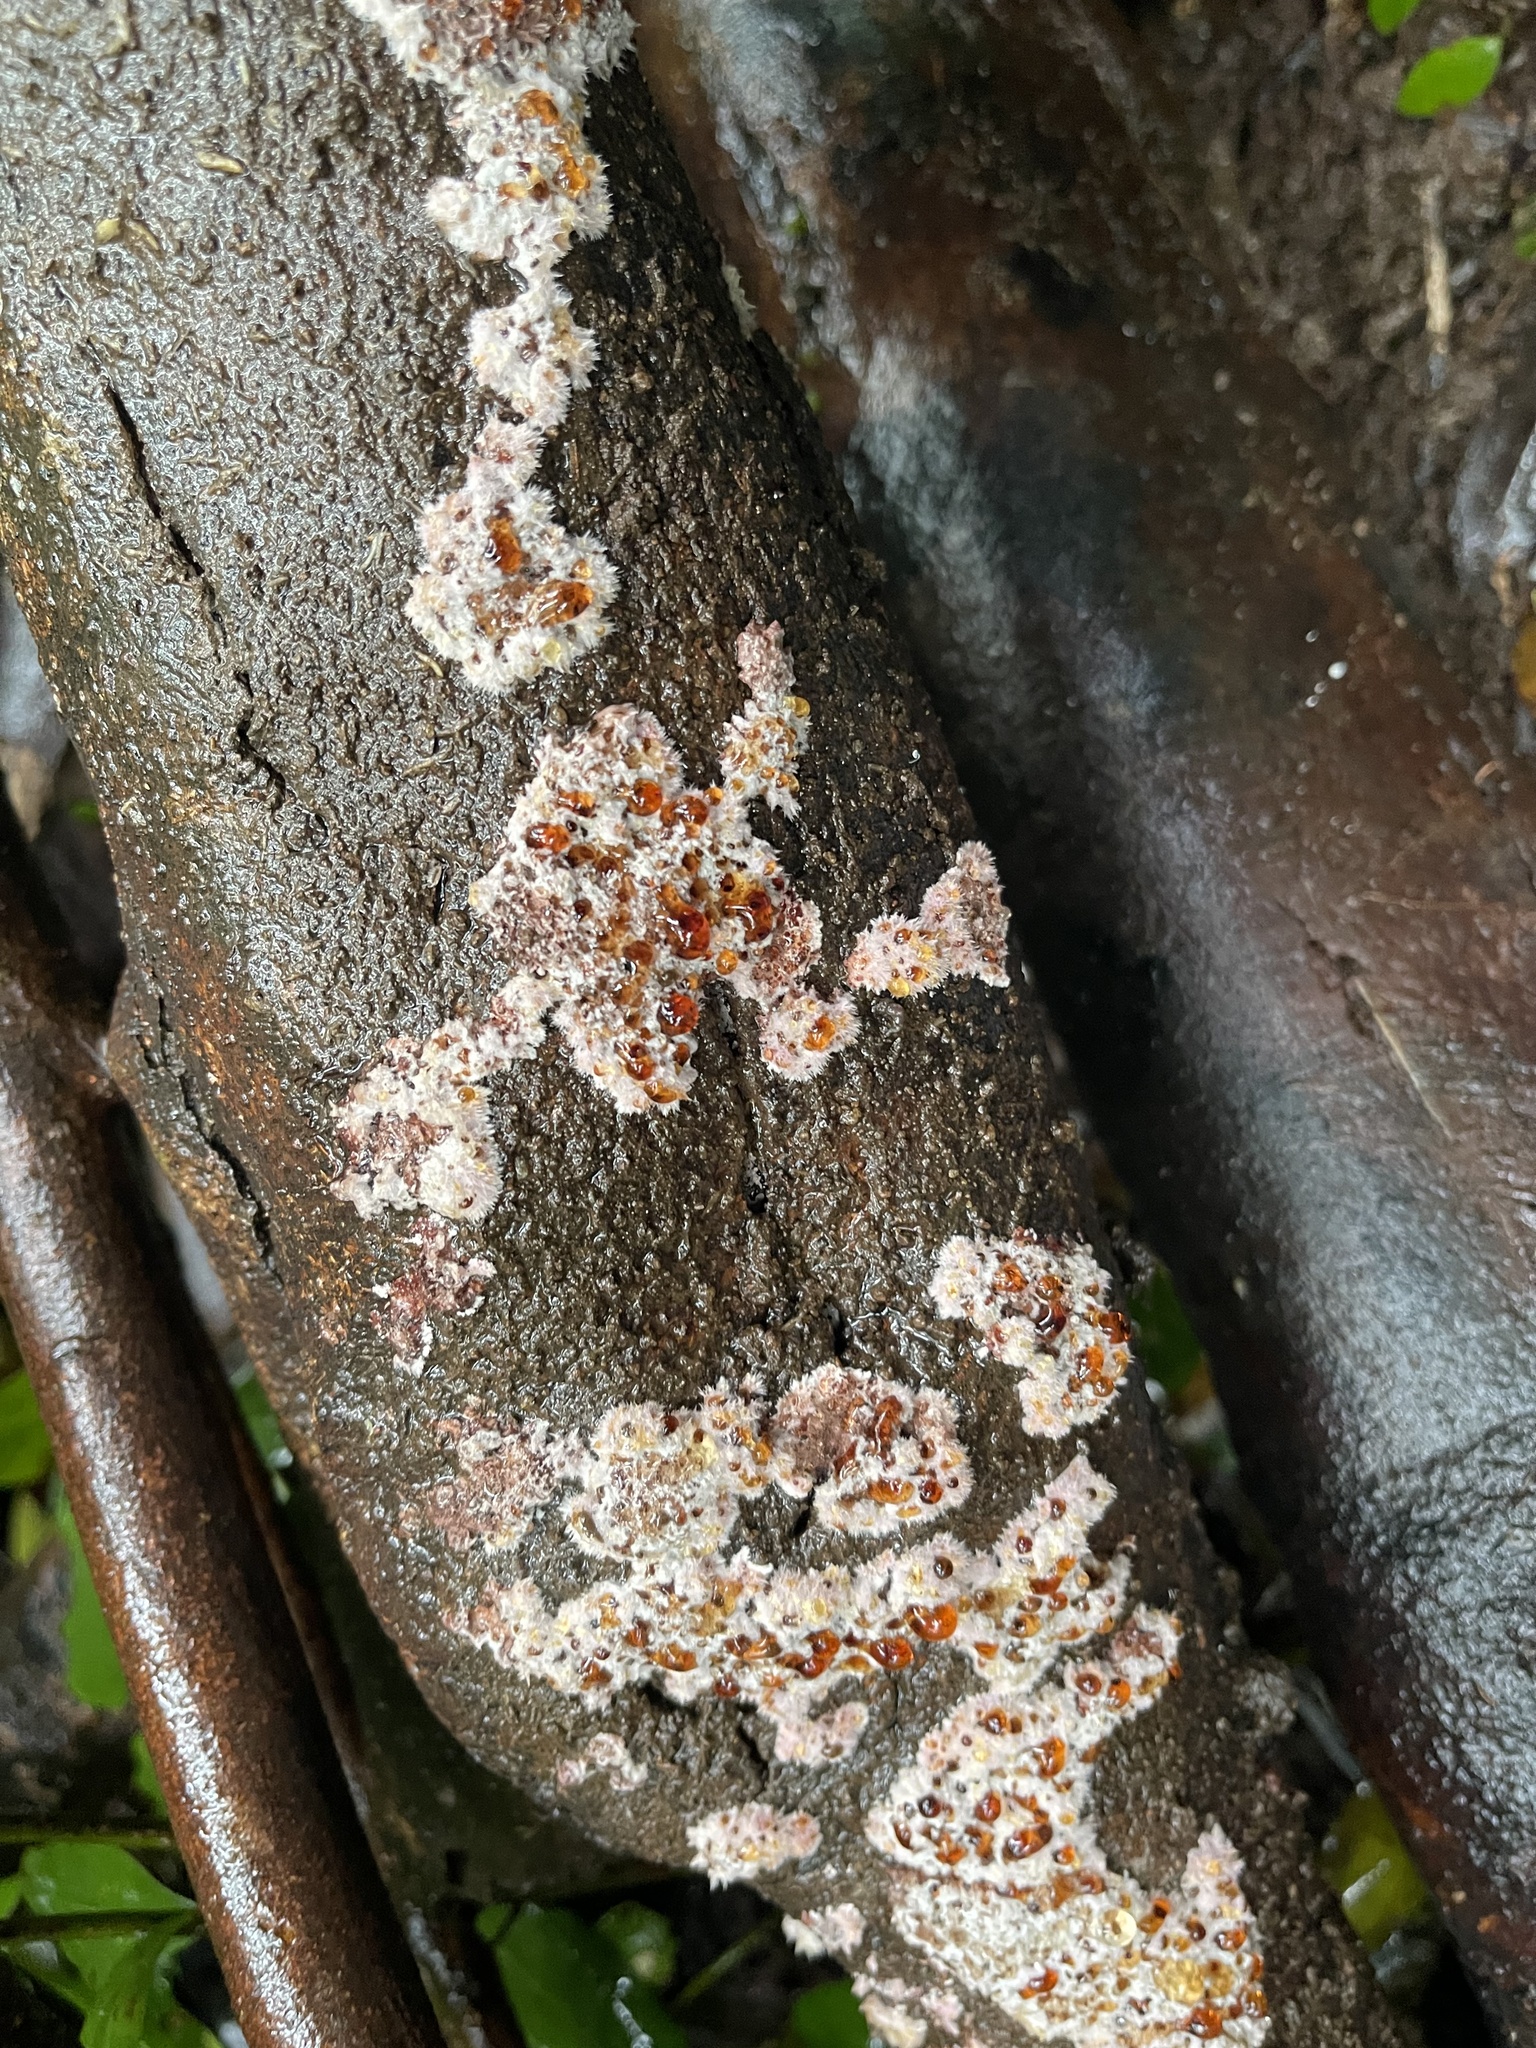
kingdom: Fungi
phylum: Basidiomycota
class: Agaricomycetes
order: Corticiales
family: Punctulariaceae
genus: Punctularia
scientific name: Punctularia atropurpurascens
